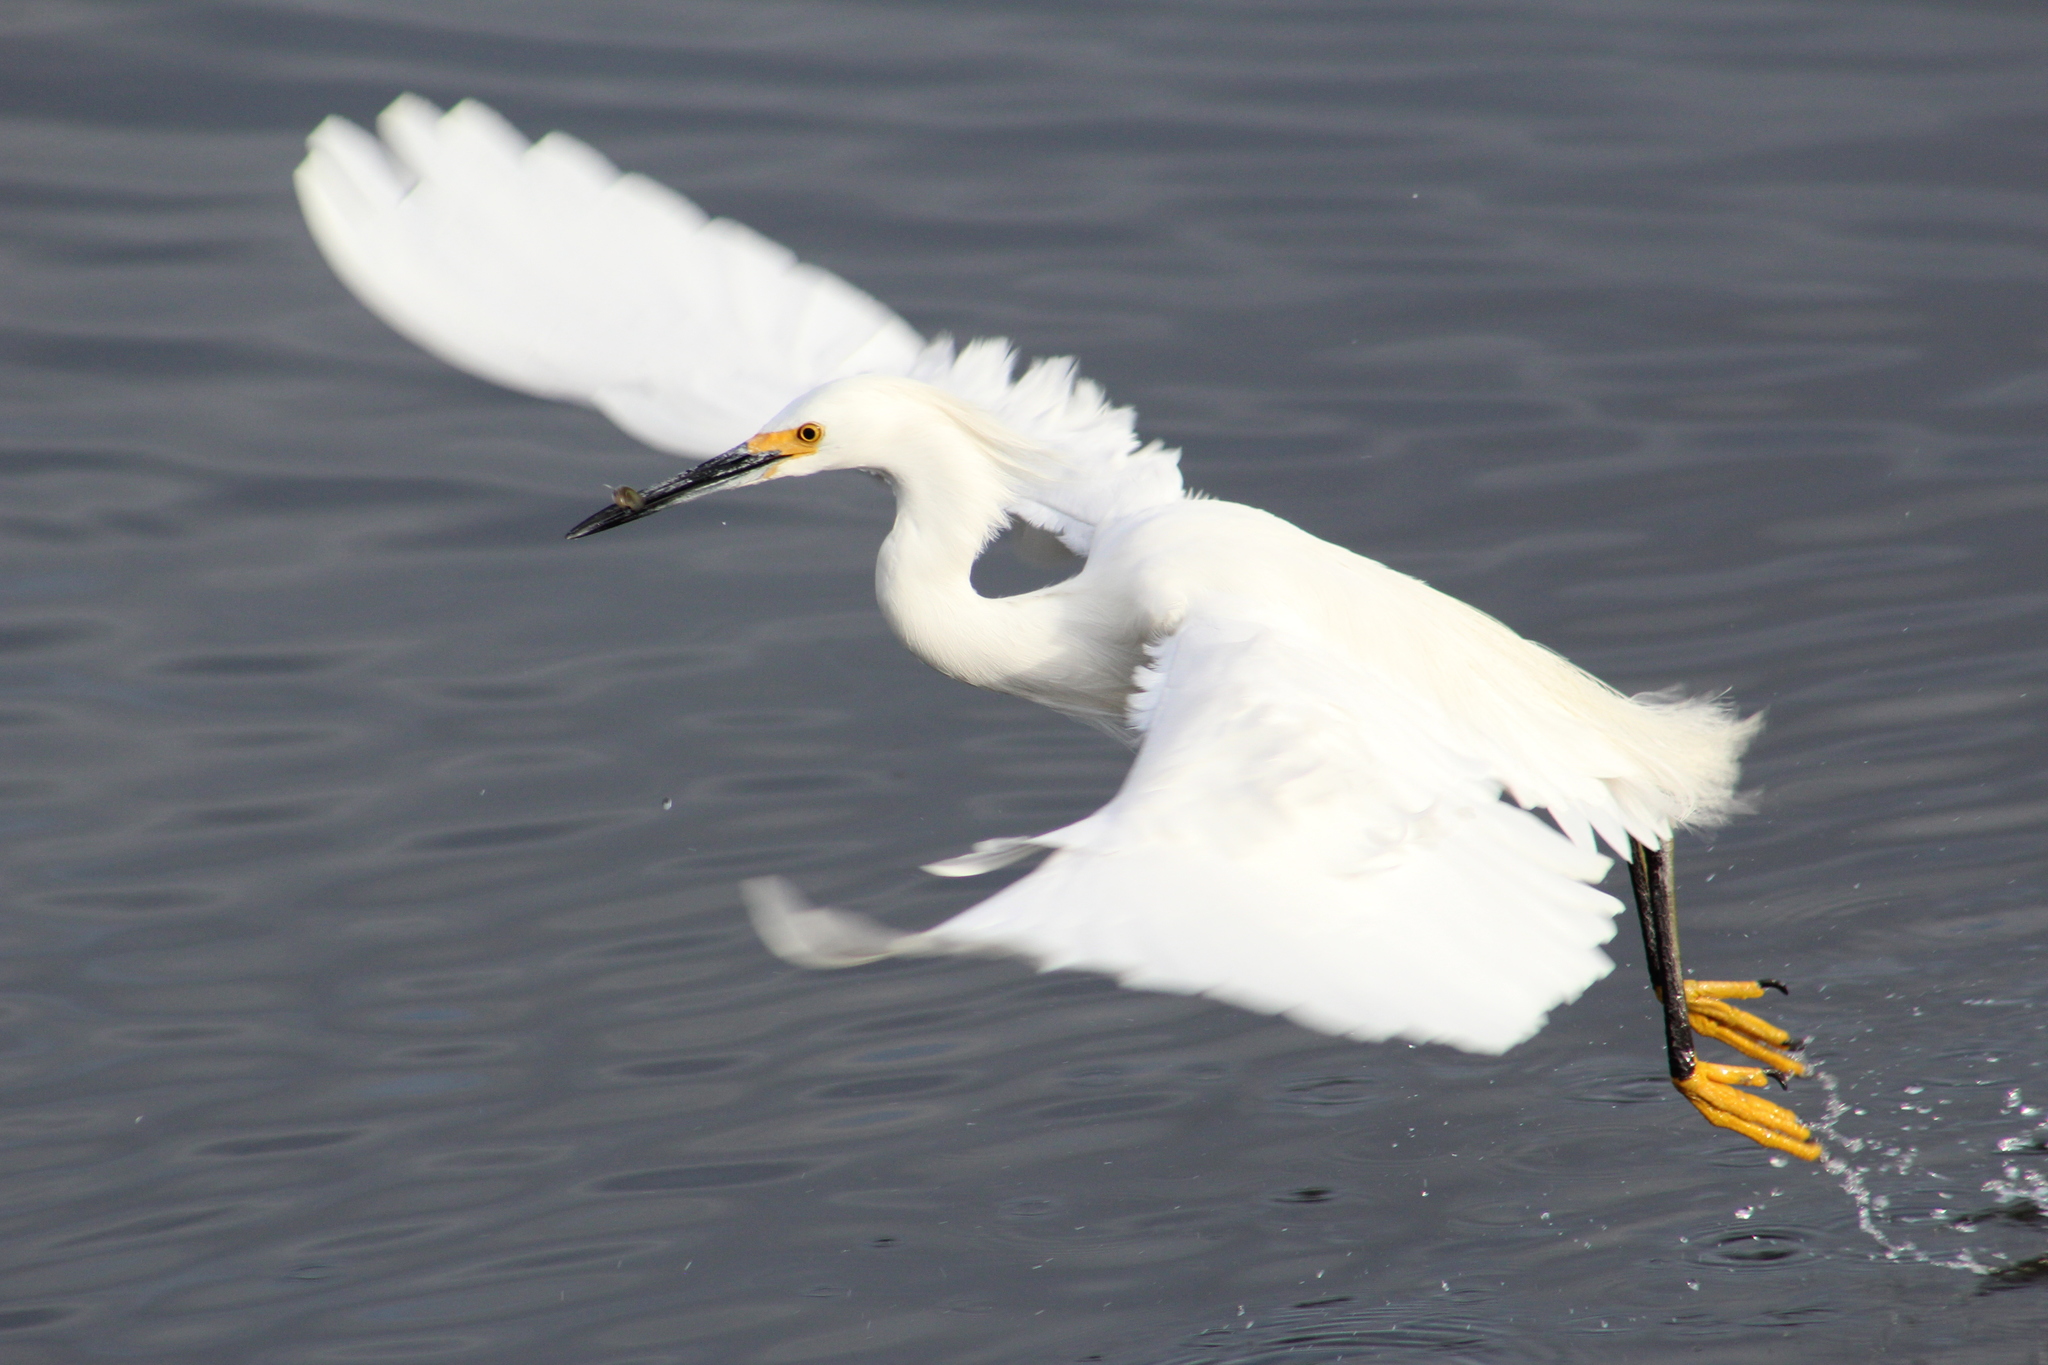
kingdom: Animalia
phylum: Chordata
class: Aves
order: Pelecaniformes
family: Ardeidae
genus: Egretta
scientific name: Egretta thula
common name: Snowy egret
